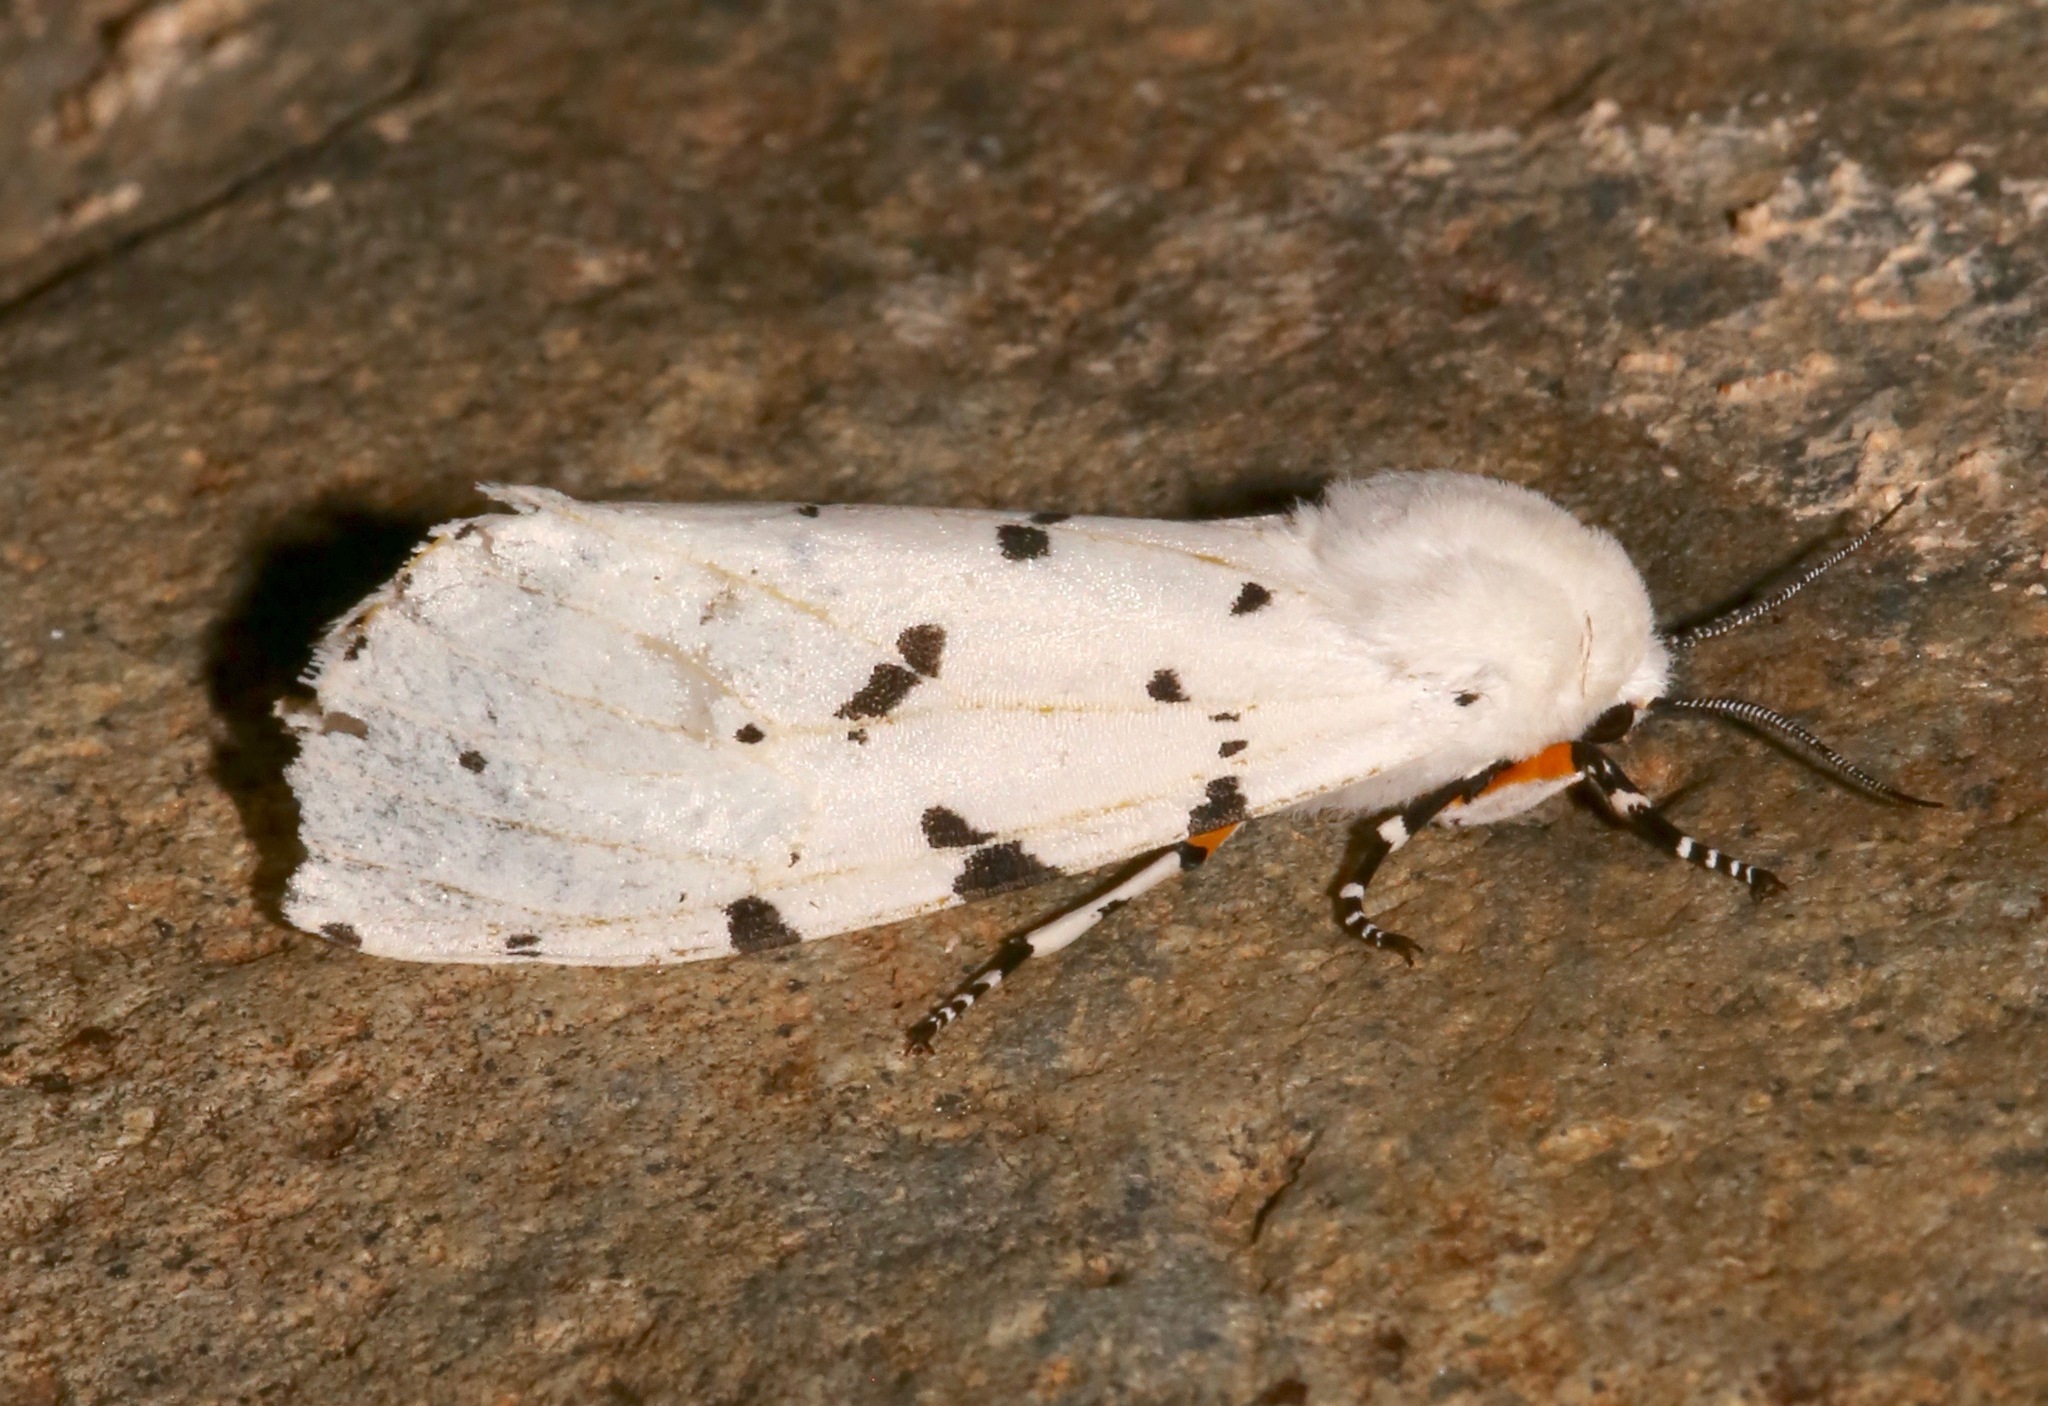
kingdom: Animalia
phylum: Arthropoda
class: Insecta
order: Lepidoptera
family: Erebidae
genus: Estigmene
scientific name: Estigmene albida
